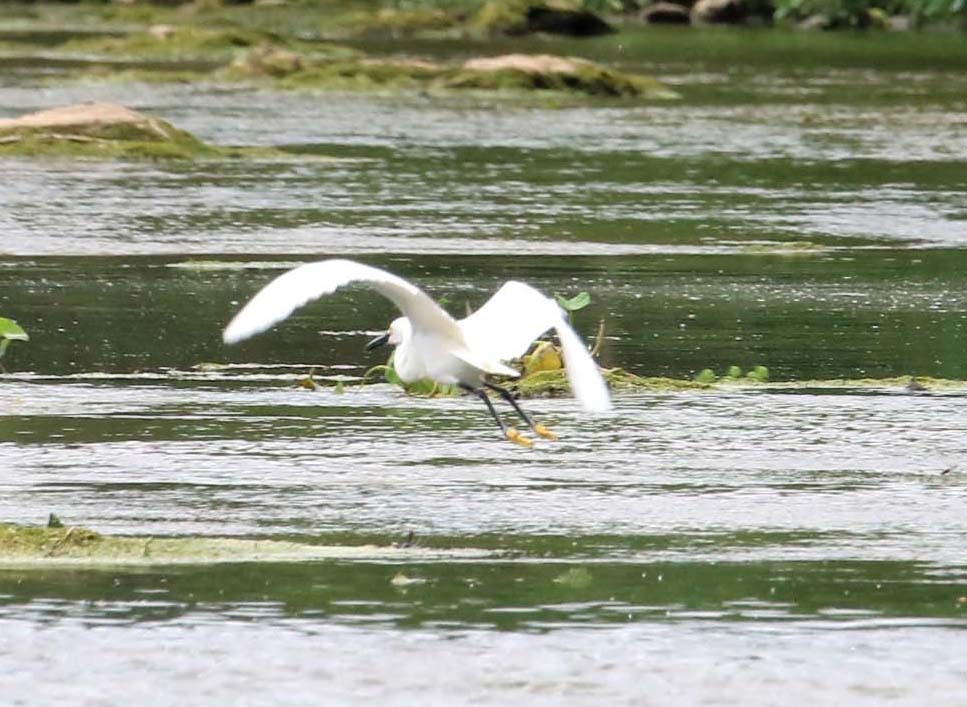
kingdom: Animalia
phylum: Chordata
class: Aves
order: Pelecaniformes
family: Ardeidae
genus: Egretta
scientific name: Egretta thula
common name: Snowy egret
